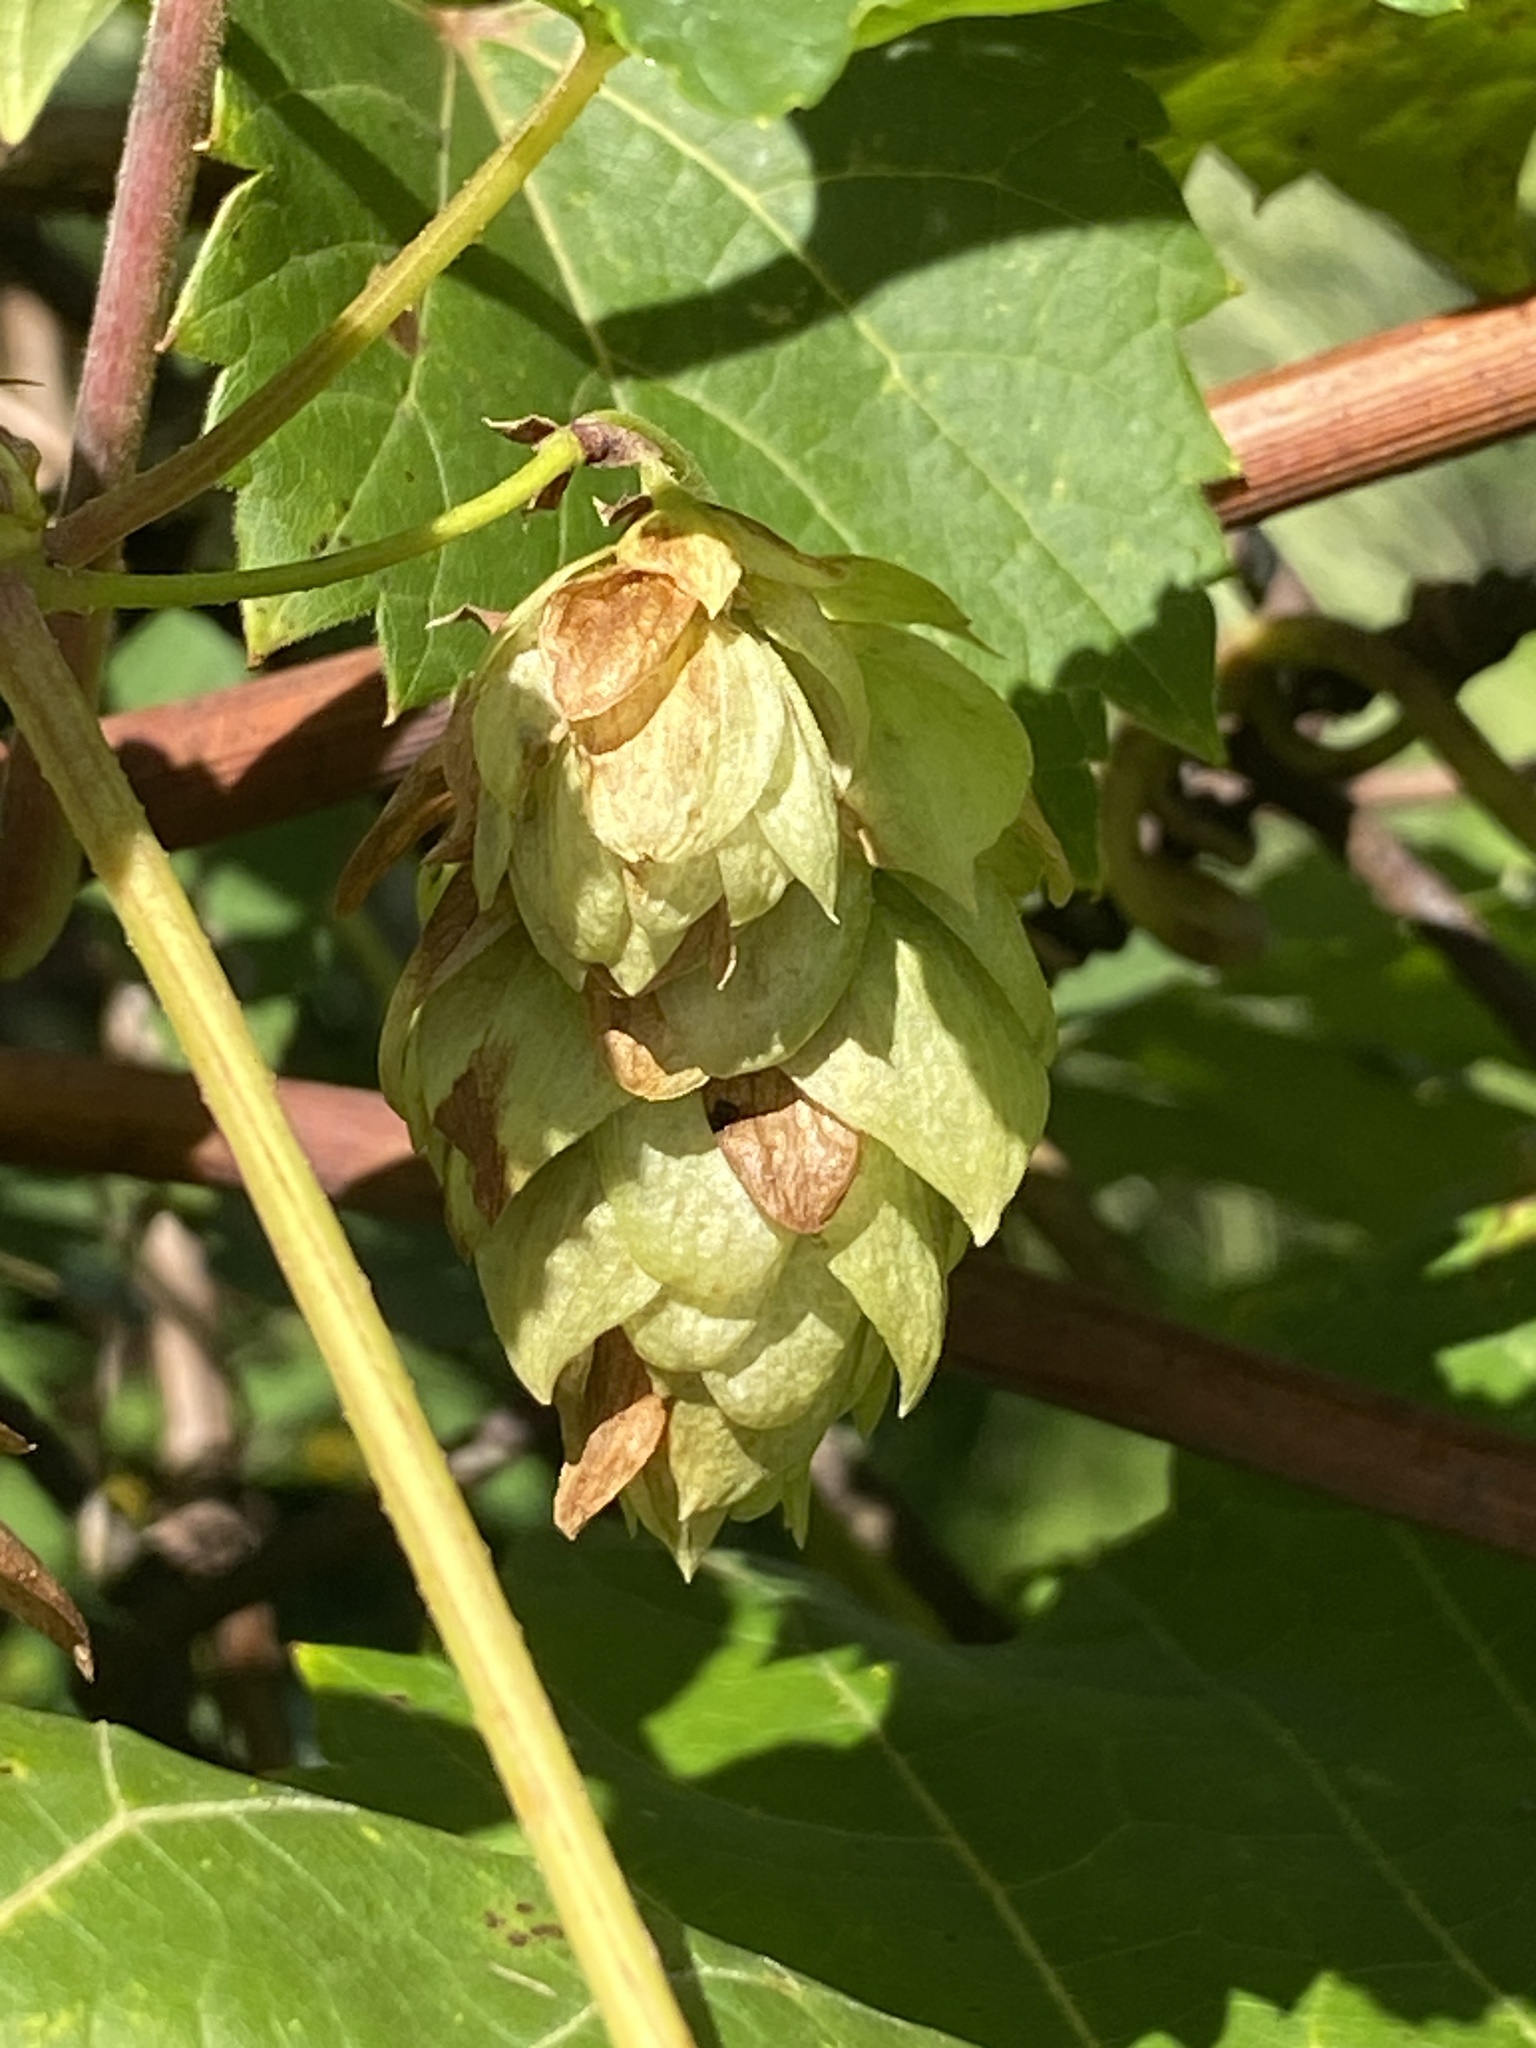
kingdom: Plantae
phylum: Tracheophyta
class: Magnoliopsida
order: Rosales
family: Cannabaceae
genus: Humulus
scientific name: Humulus lupulus
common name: Hop
